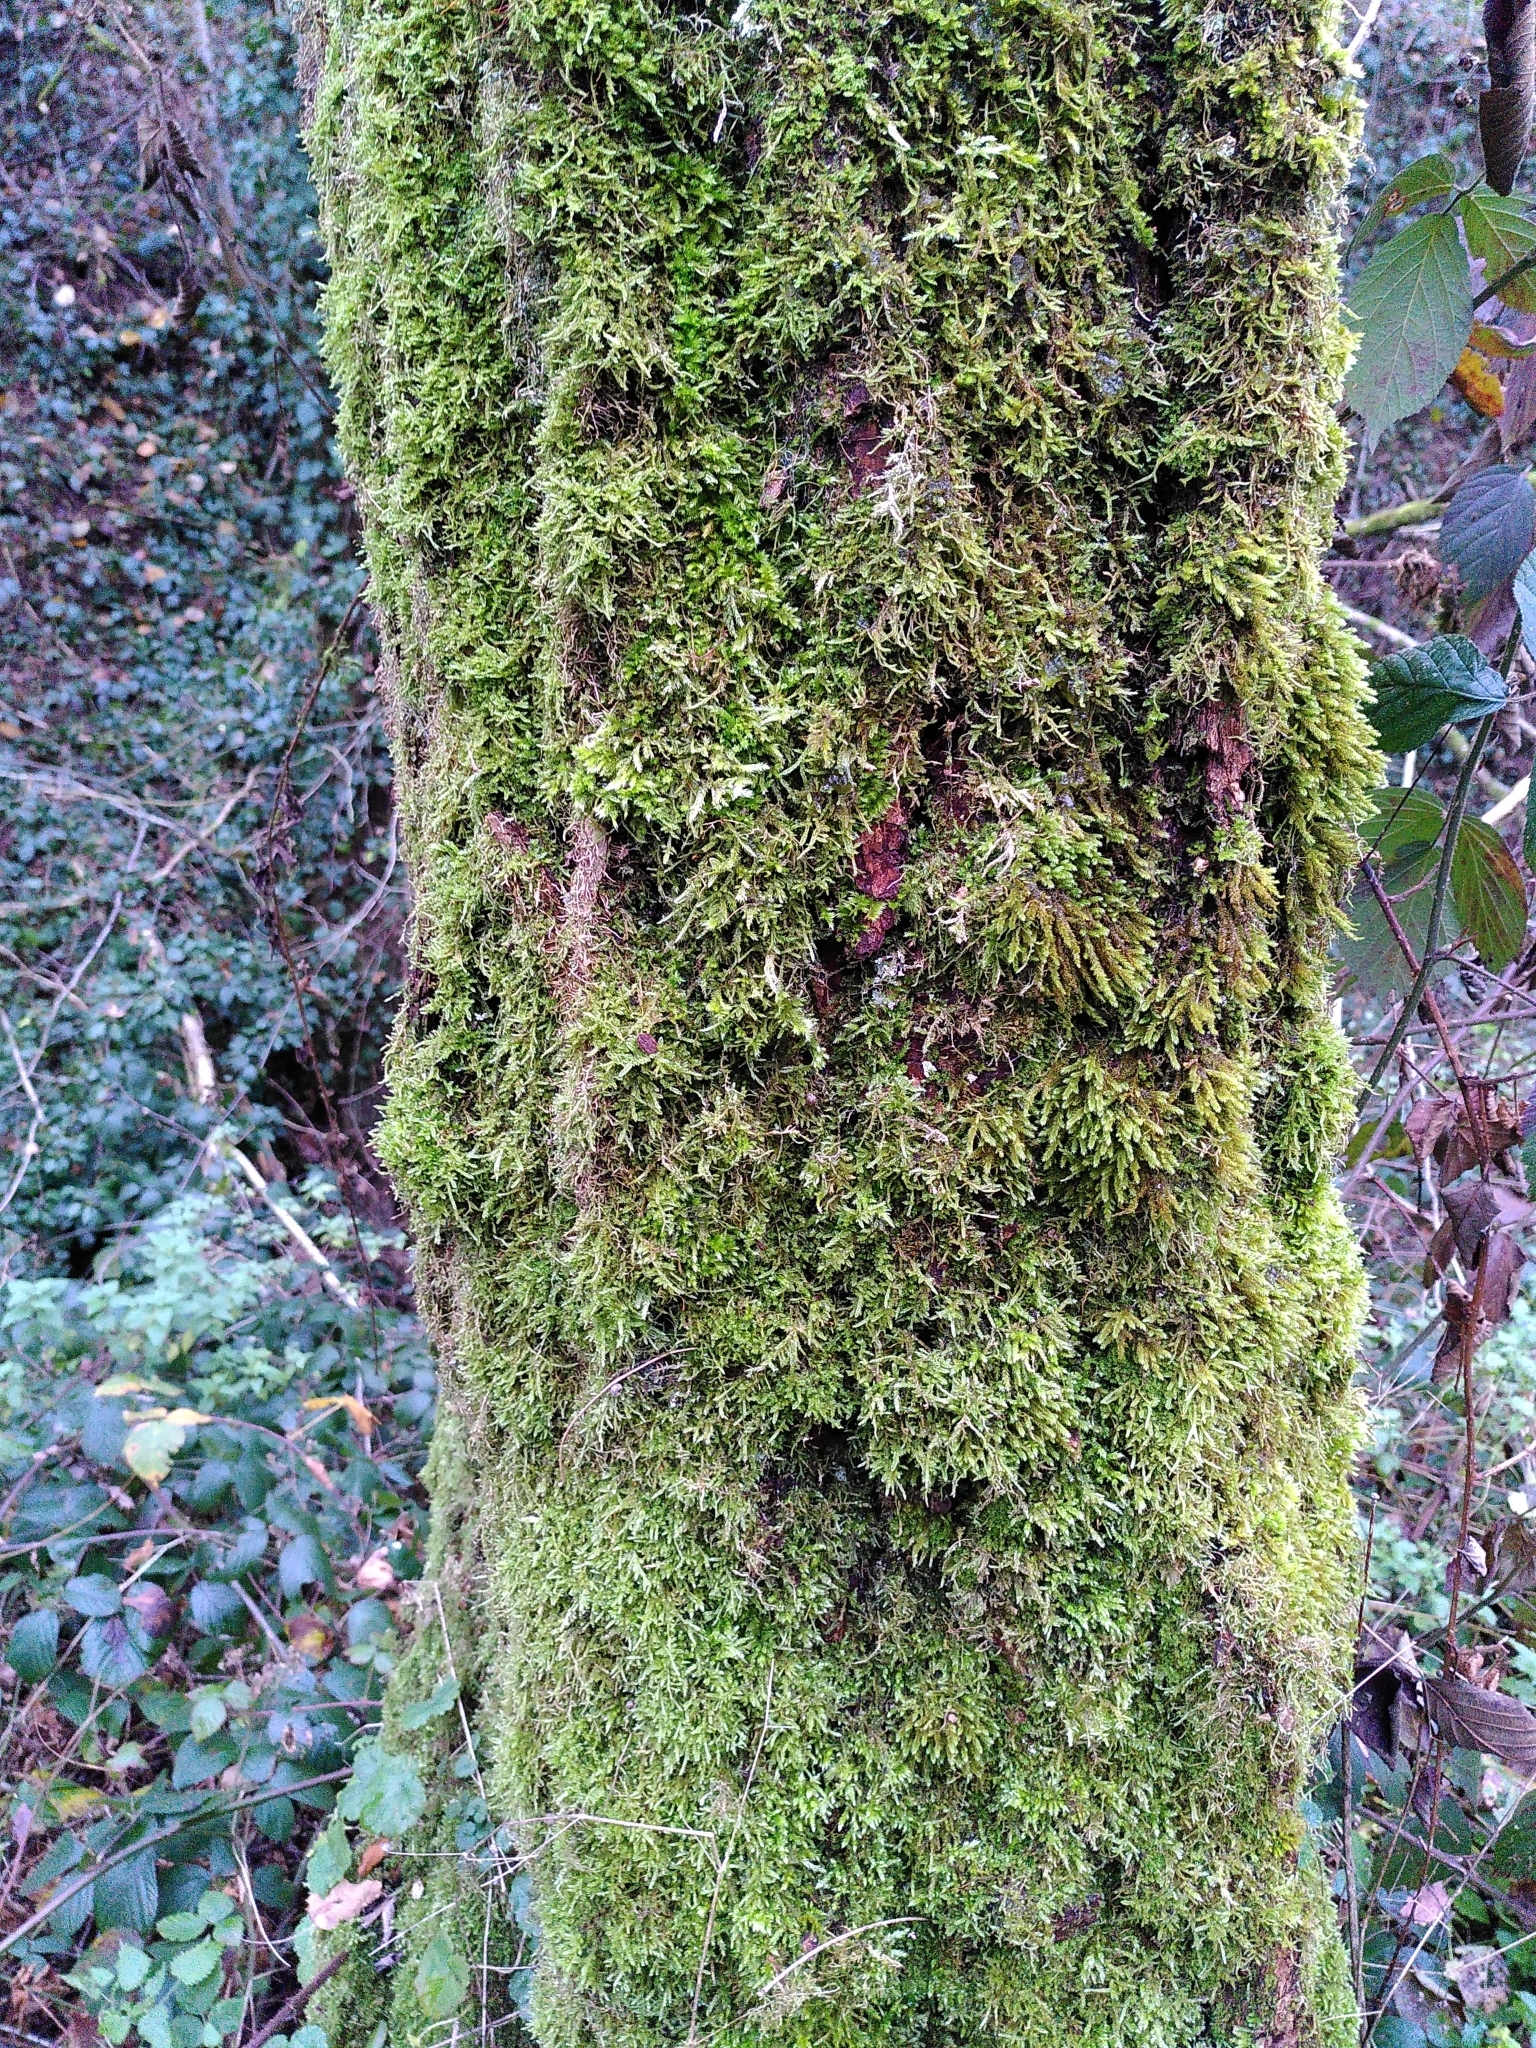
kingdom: Plantae
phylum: Bryophyta
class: Bryopsida
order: Hypnales
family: Leucodontaceae
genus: Leucodon
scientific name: Leucodon sciuroides
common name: Squirrel-tail moss
